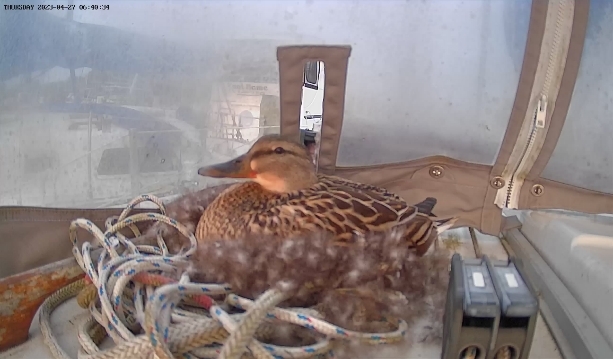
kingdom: Animalia
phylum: Chordata
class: Aves
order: Anseriformes
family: Anatidae
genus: Anas
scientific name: Anas platyrhynchos
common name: Mallard
